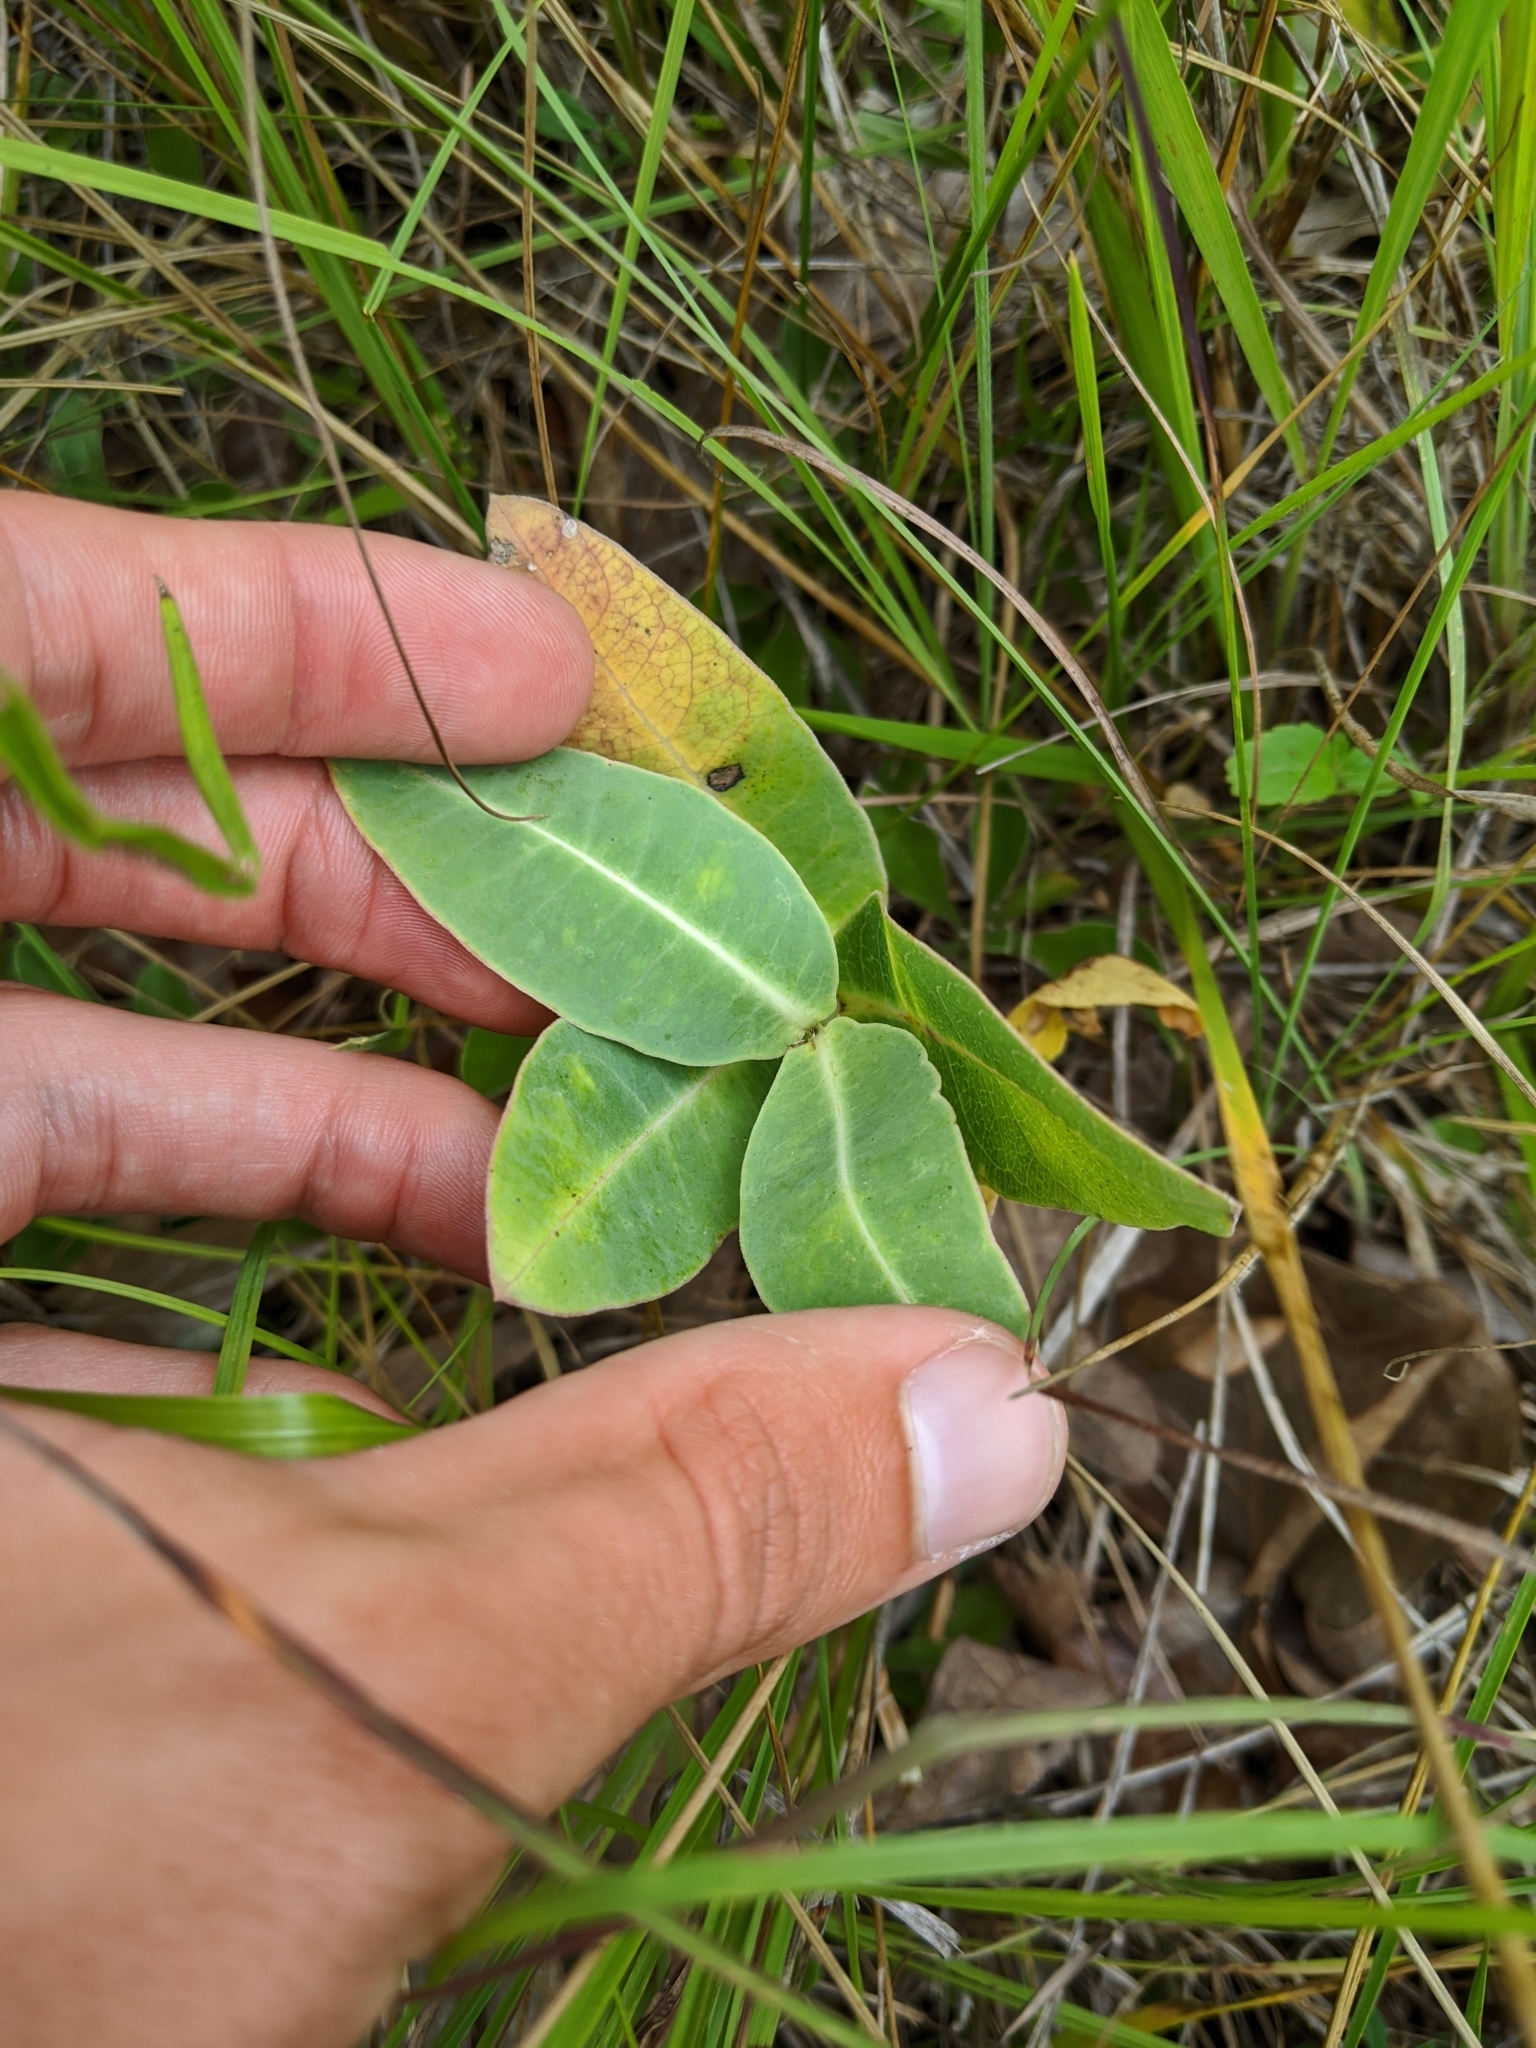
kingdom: Plantae
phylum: Tracheophyta
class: Magnoliopsida
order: Gentianales
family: Apocynaceae
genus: Asclepias
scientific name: Asclepias amplexicaulis
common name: Blunt-leaf milkweed
